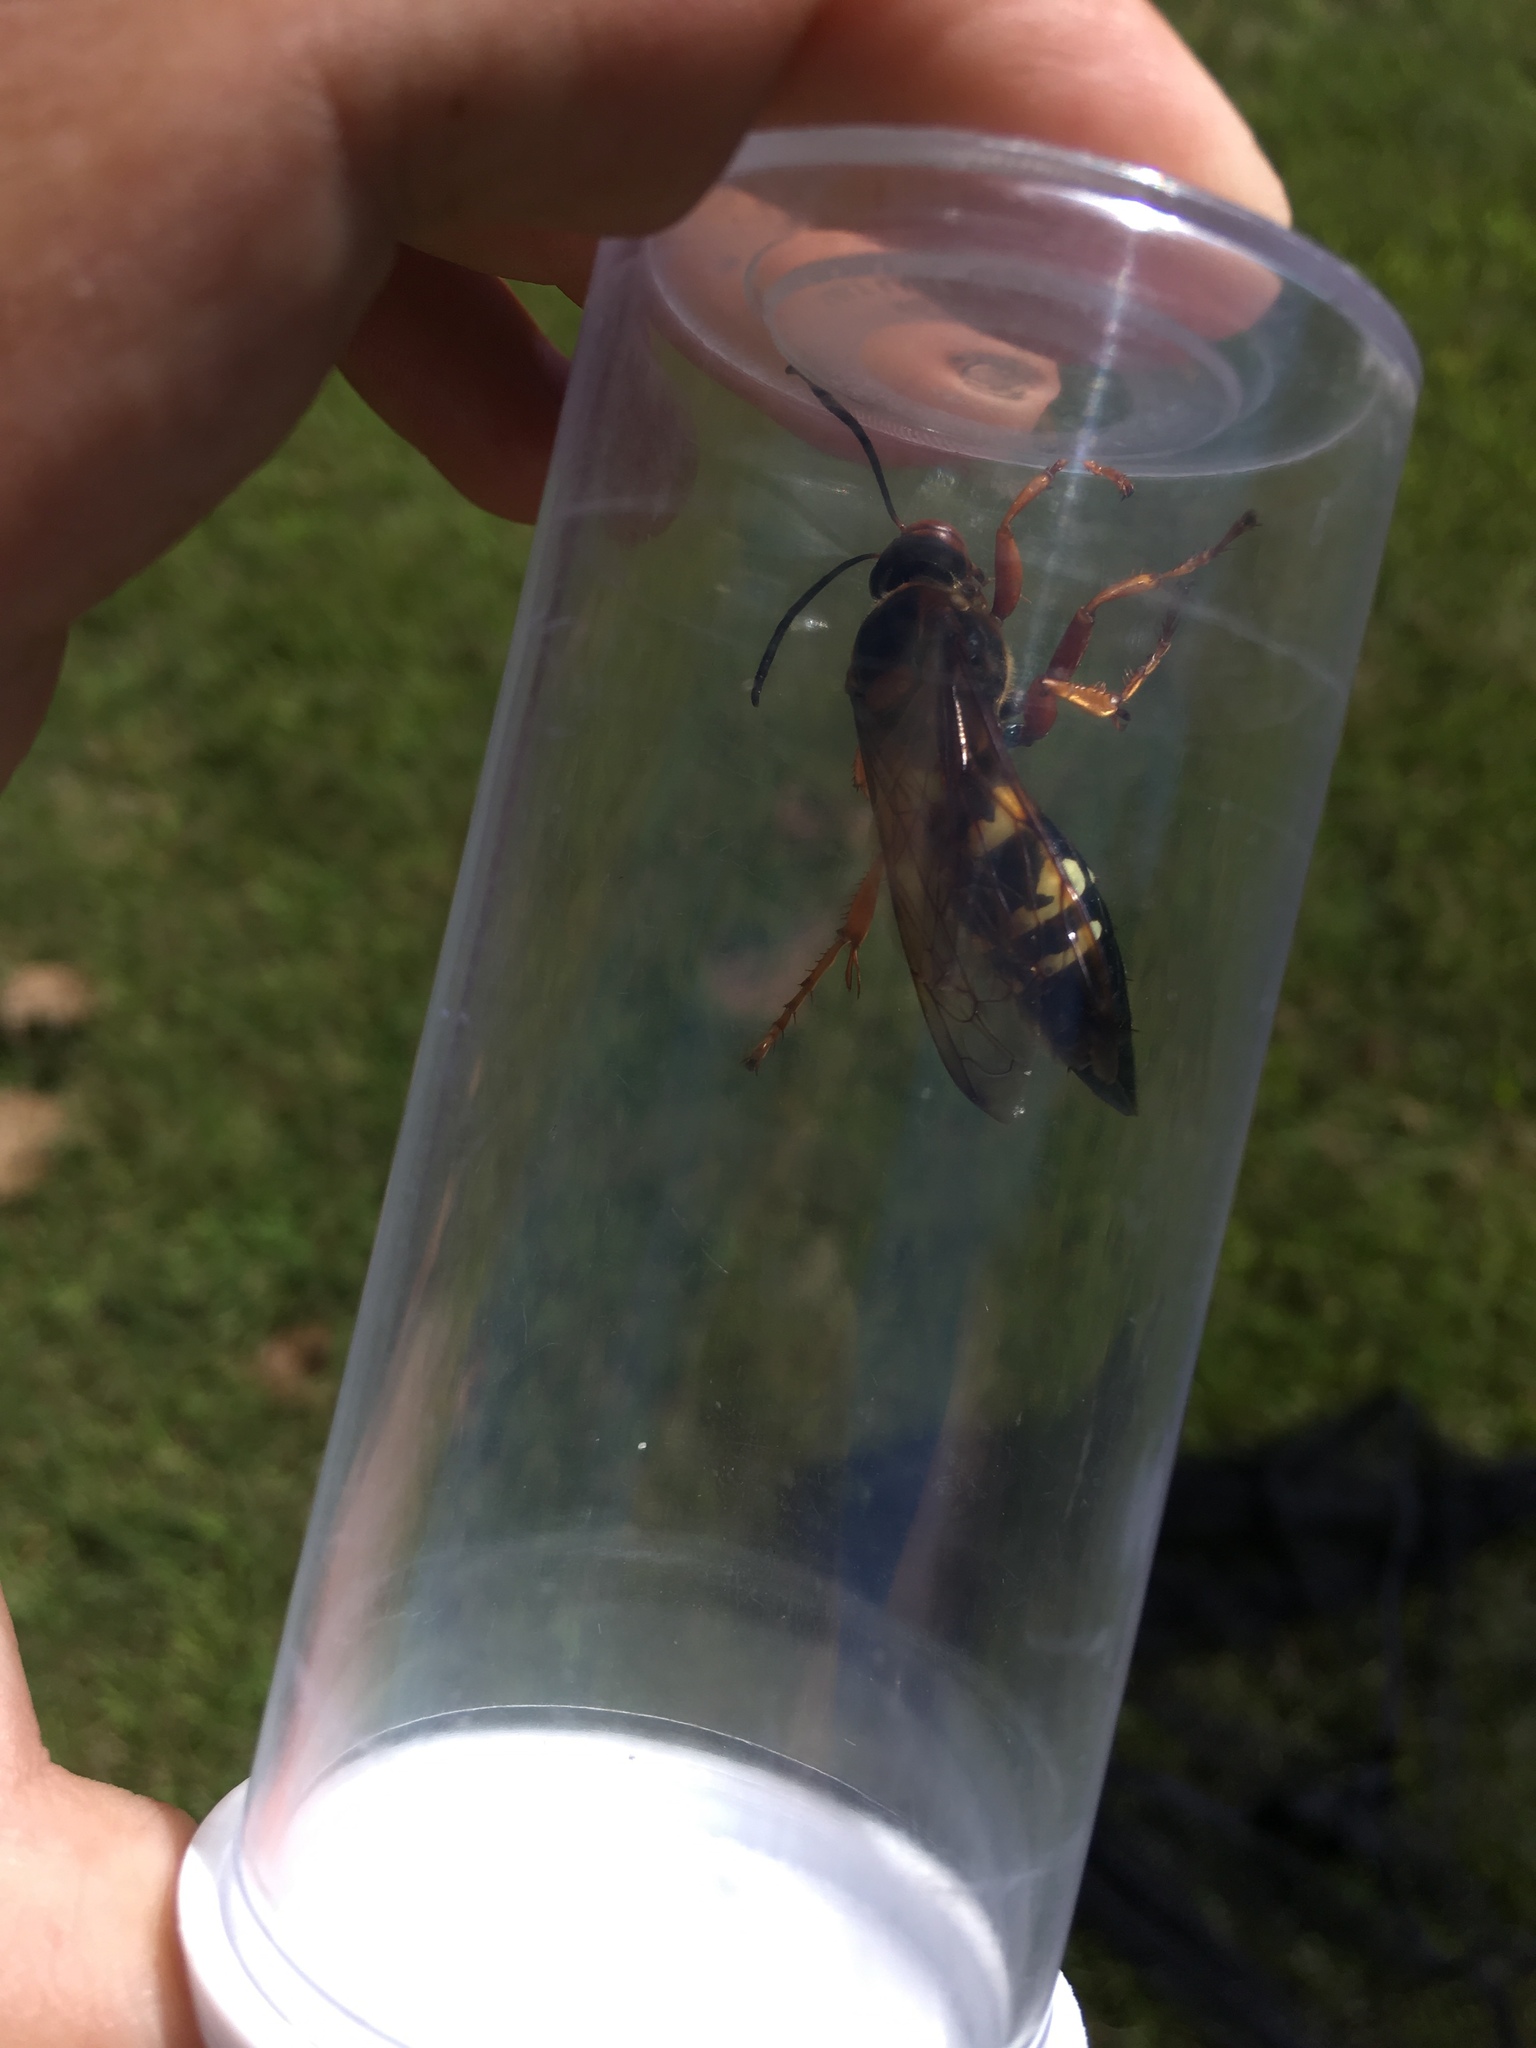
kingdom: Animalia
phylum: Arthropoda
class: Insecta
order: Hymenoptera
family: Crabronidae
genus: Sphecius
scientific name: Sphecius speciosus
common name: Cicada killer
